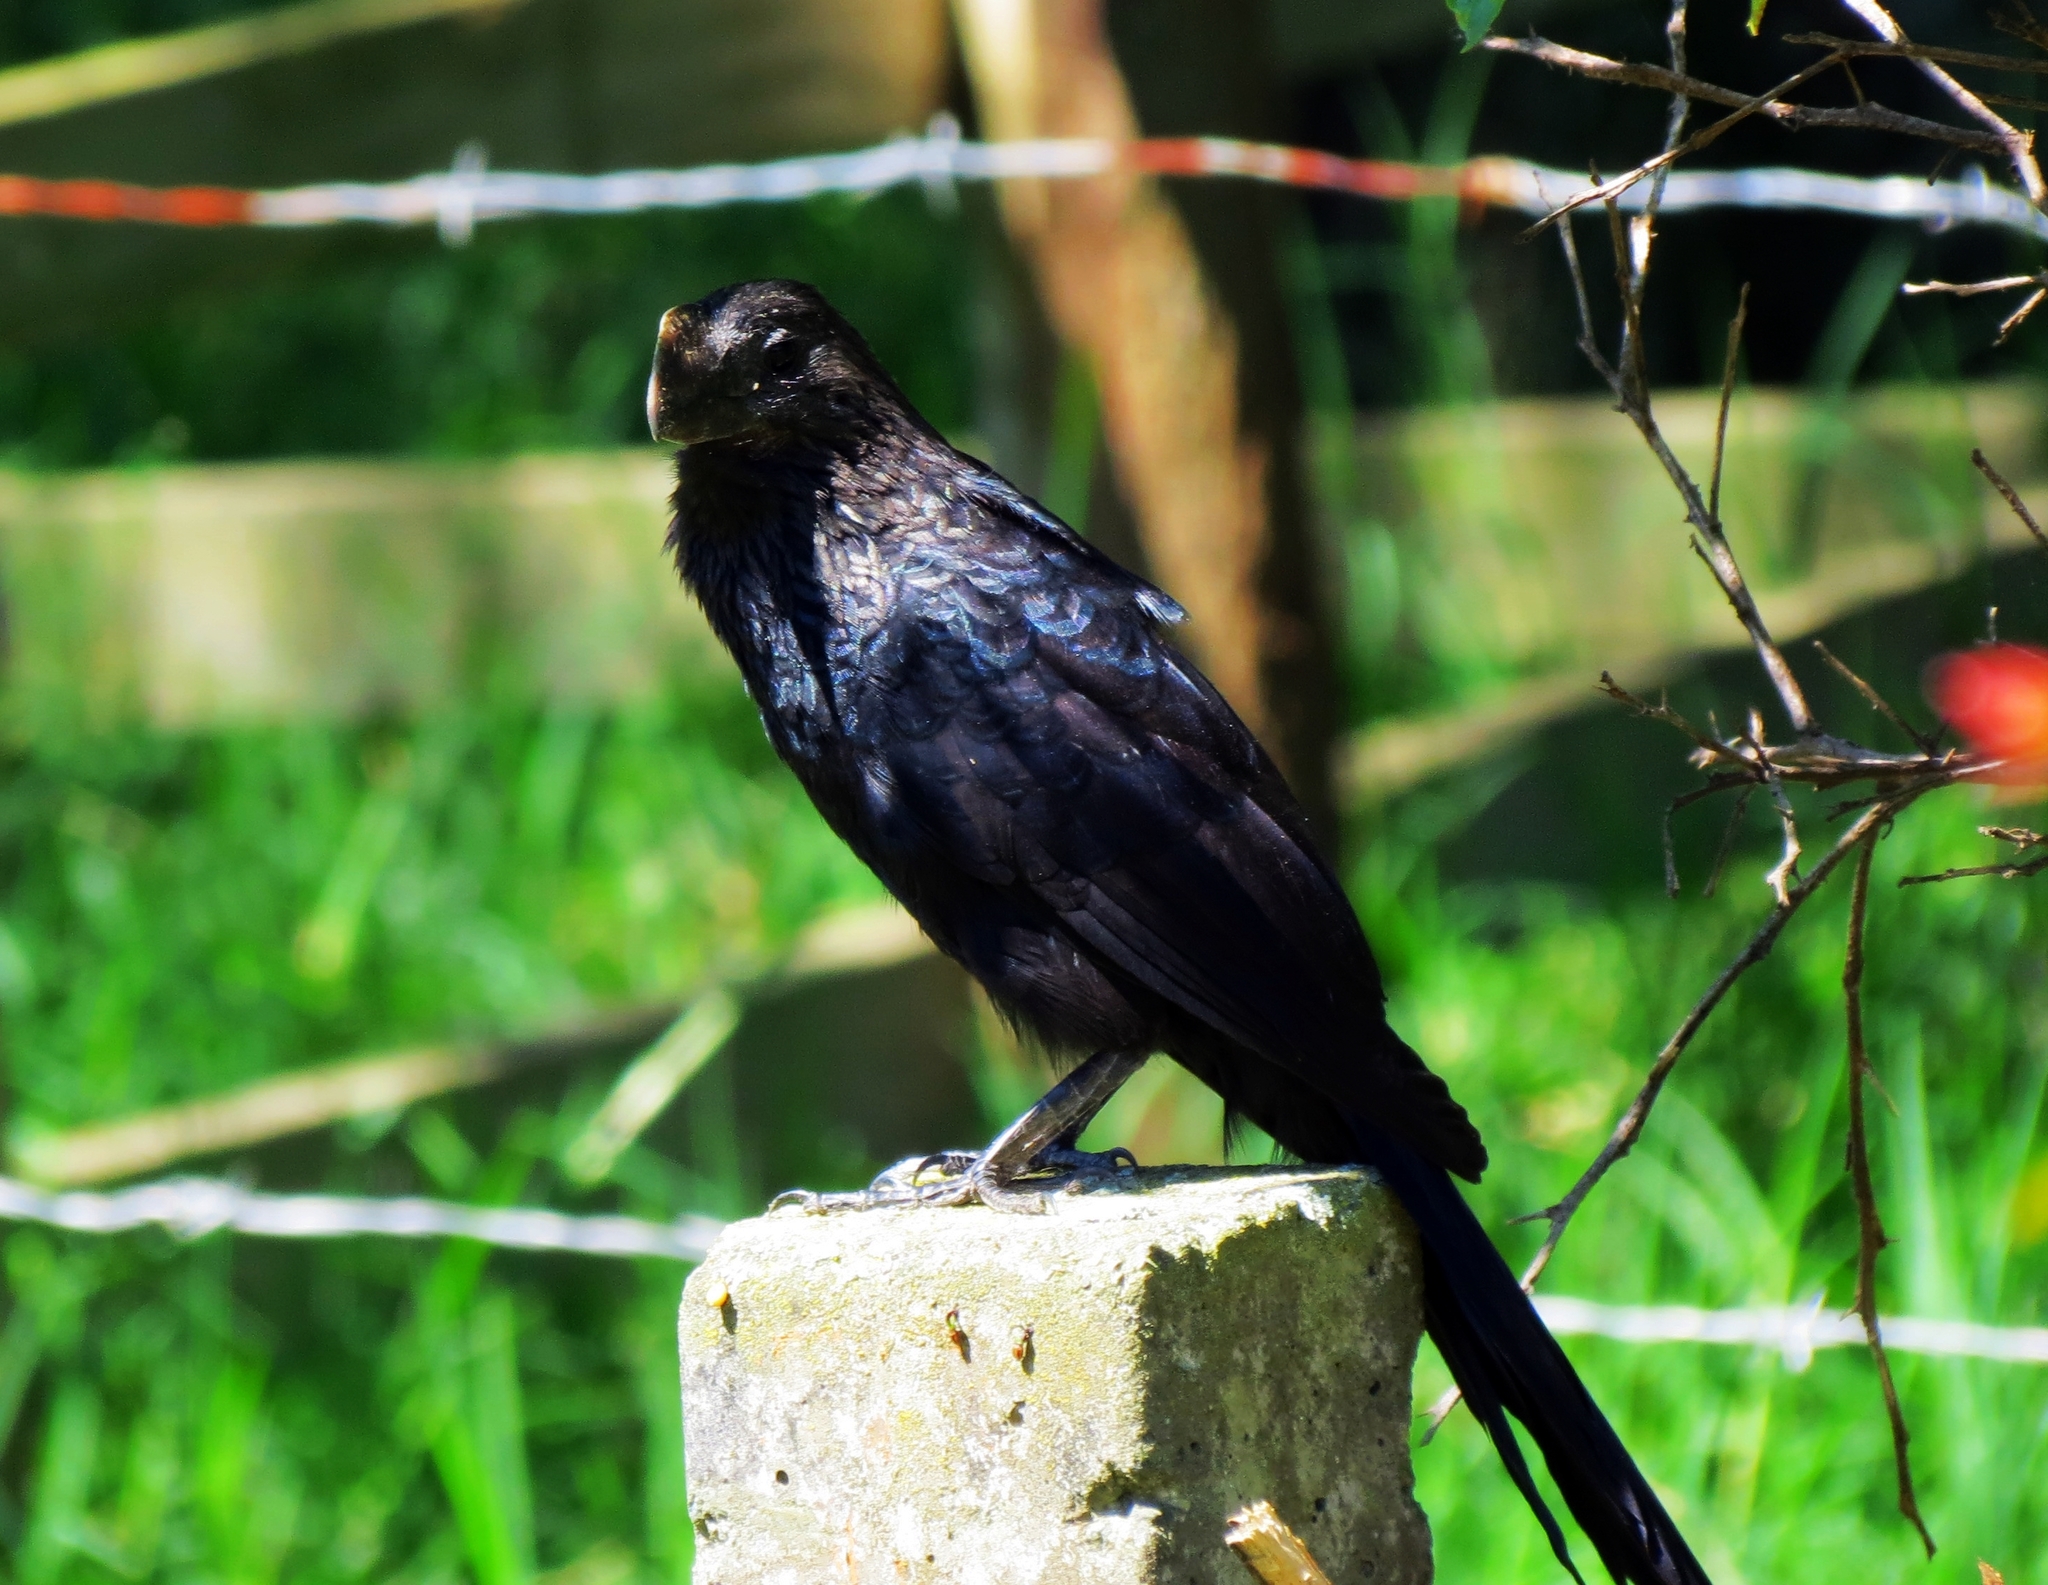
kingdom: Animalia
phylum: Chordata
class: Aves
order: Cuculiformes
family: Cuculidae
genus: Crotophaga
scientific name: Crotophaga ani
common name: Smooth-billed ani
